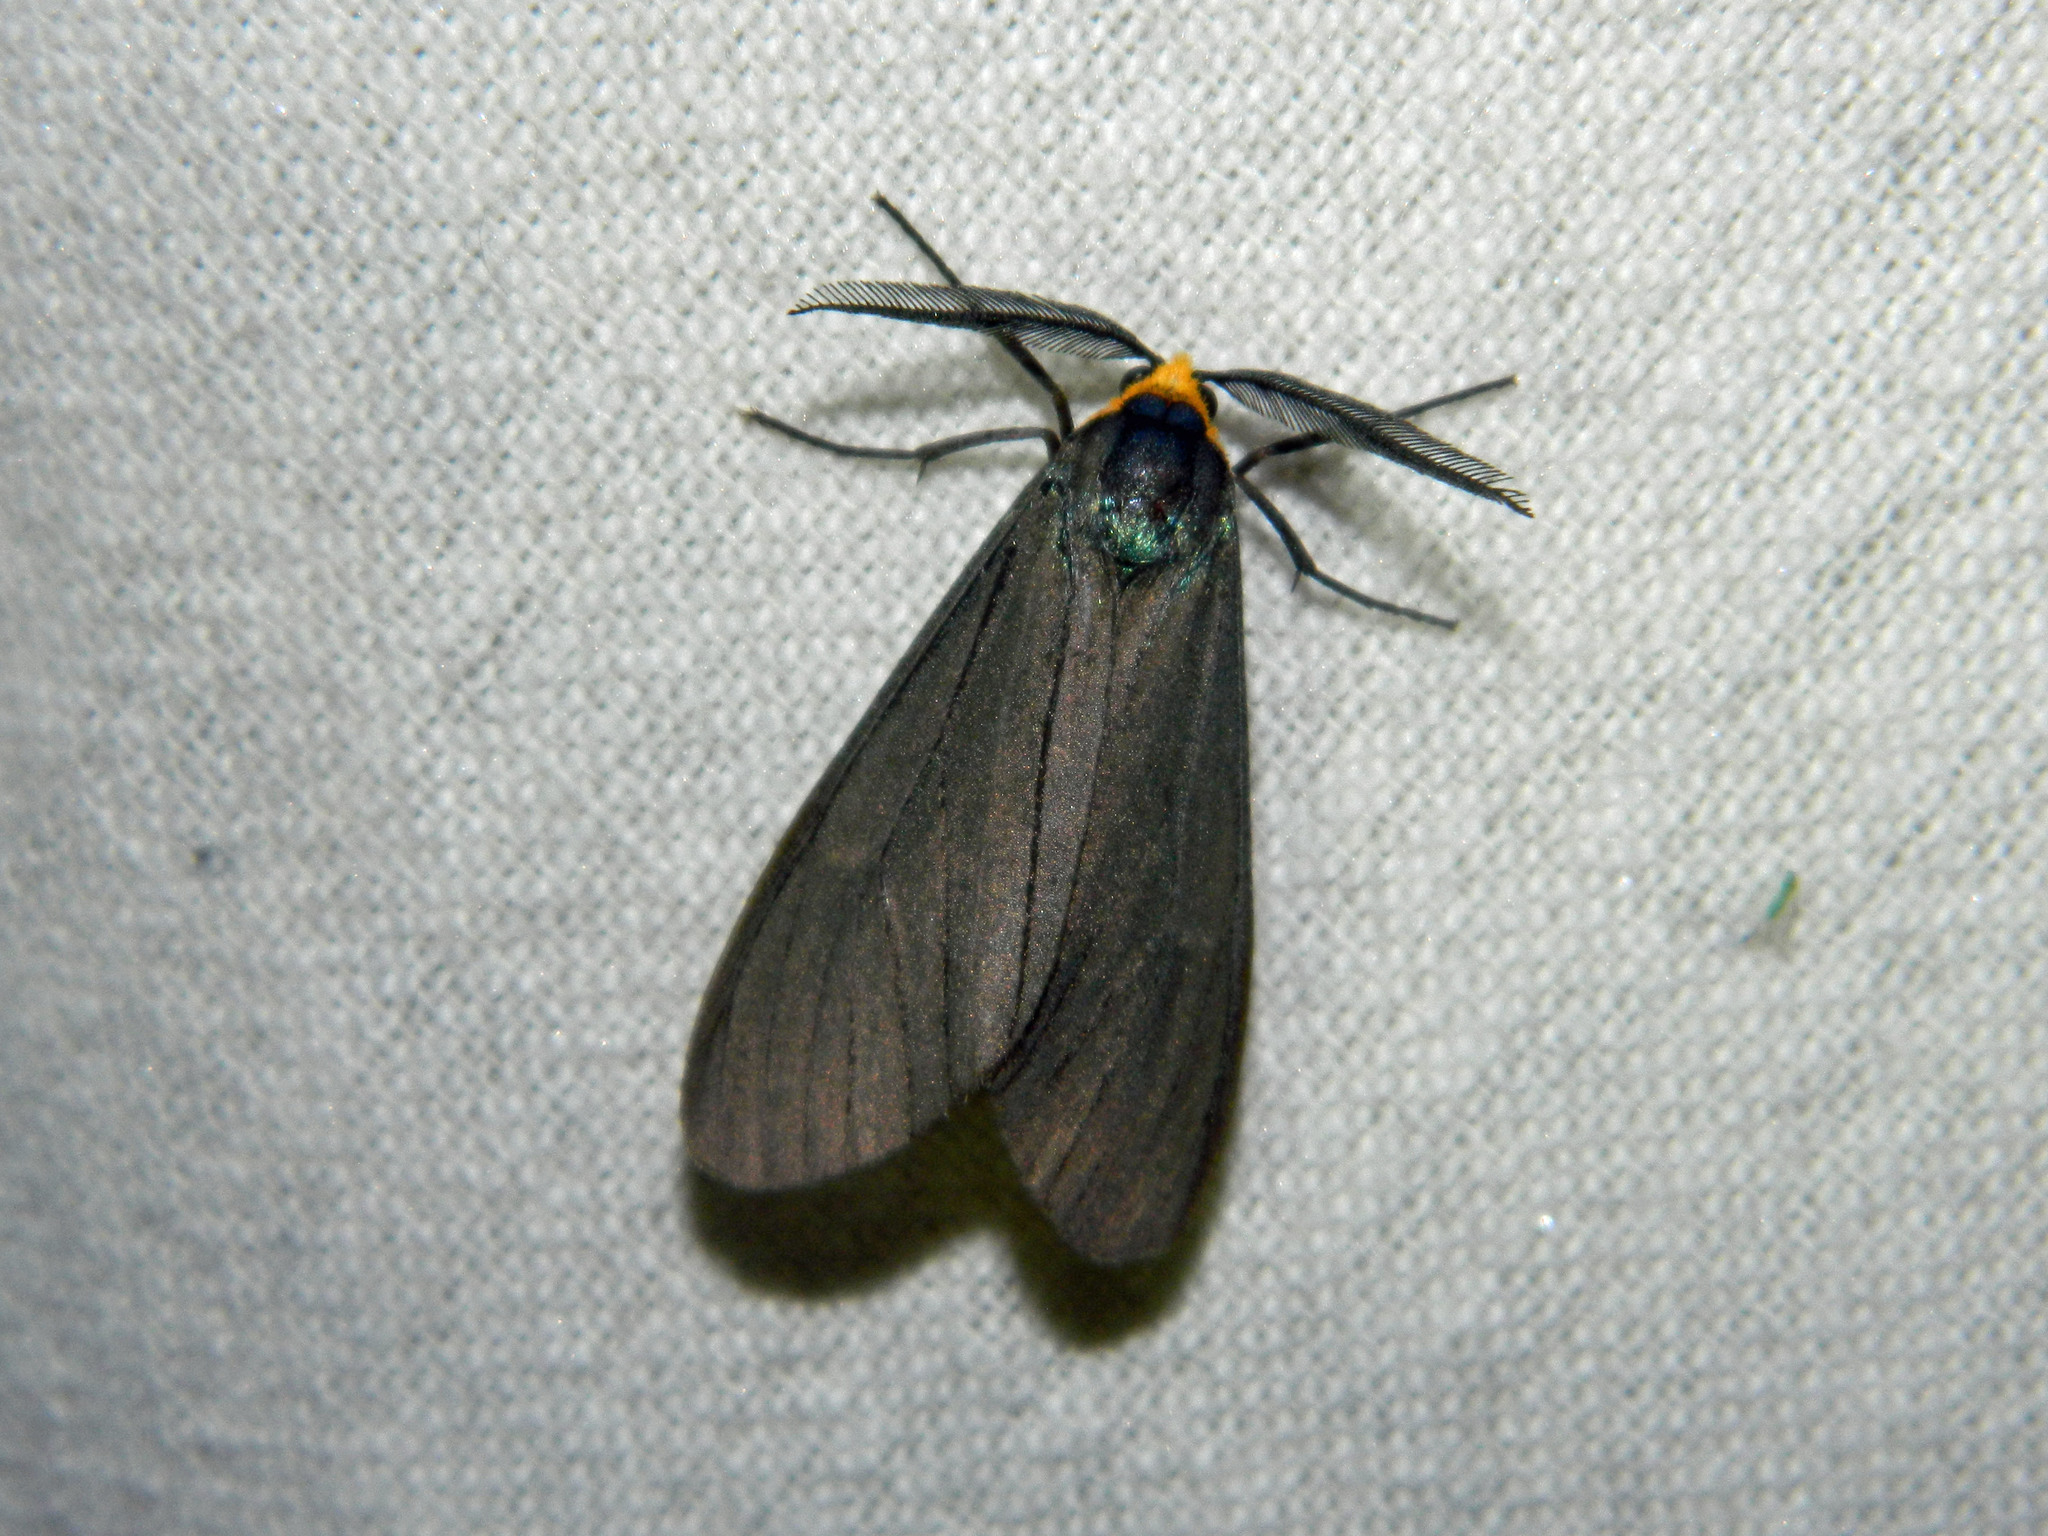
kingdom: Animalia
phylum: Arthropoda
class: Insecta
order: Lepidoptera
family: Erebidae
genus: Ctenucha
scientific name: Ctenucha virginica
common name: Virginia ctenucha moth
